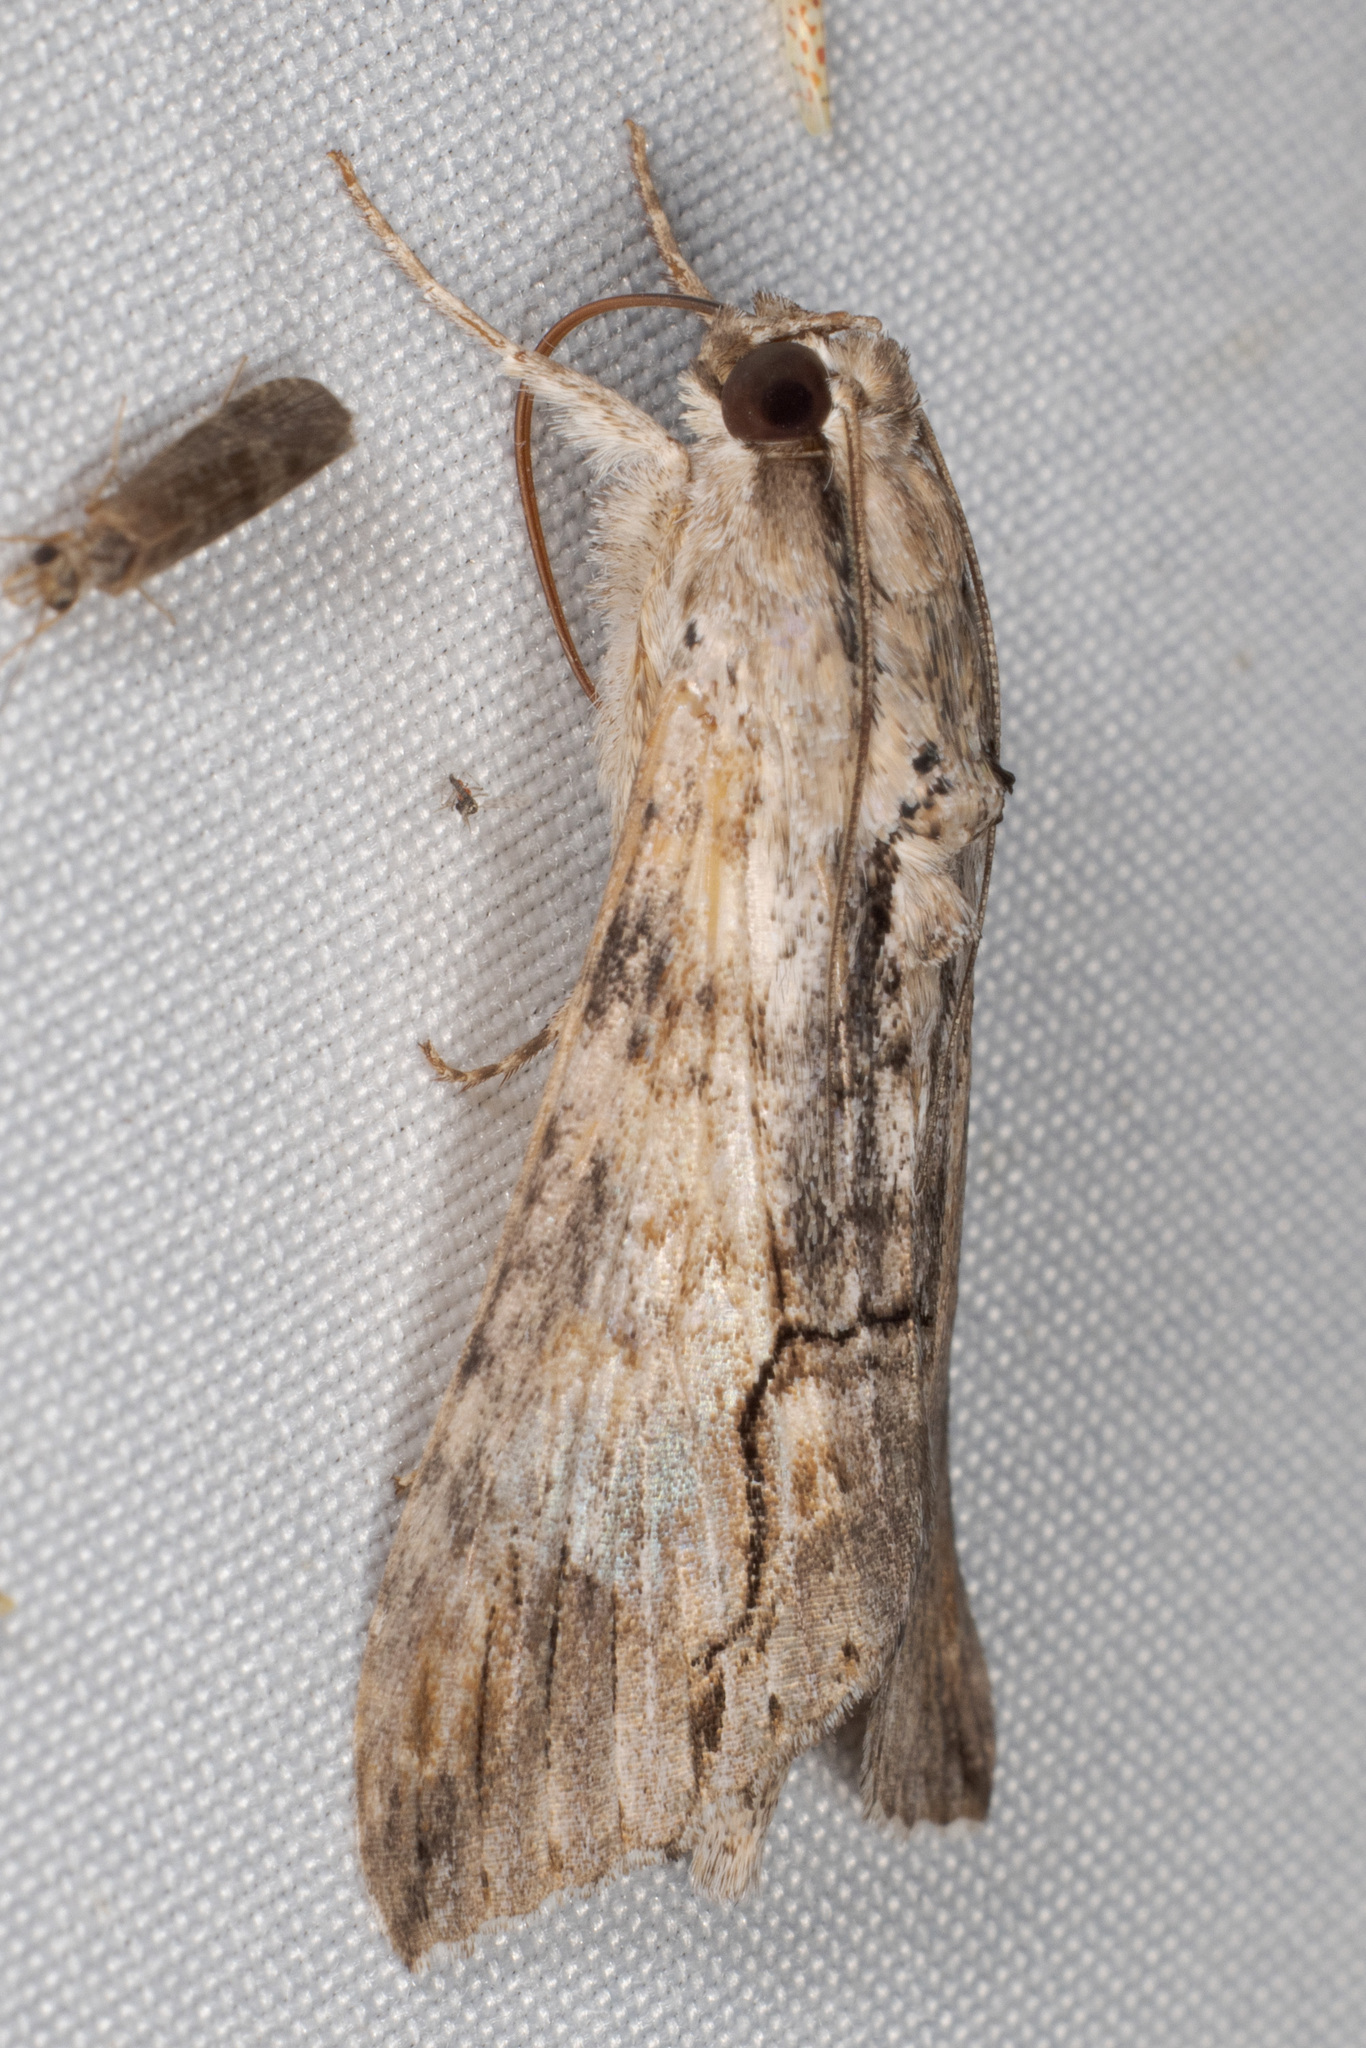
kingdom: Animalia
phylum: Arthropoda
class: Insecta
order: Lepidoptera
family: Erebidae
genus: Melipotis
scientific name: Melipotis acontioides
